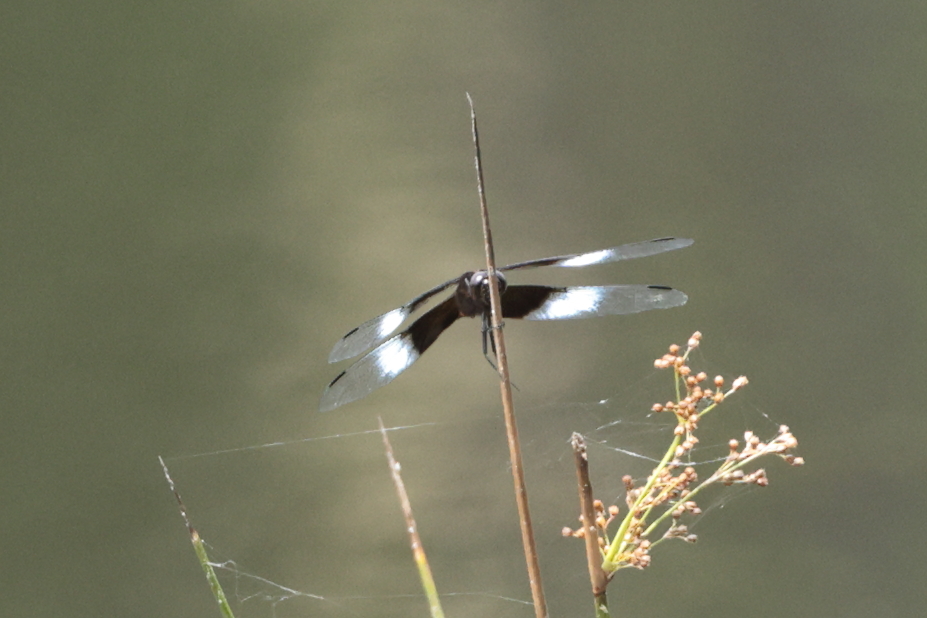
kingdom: Animalia
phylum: Arthropoda
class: Insecta
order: Odonata
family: Libellulidae
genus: Libellula
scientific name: Libellula luctuosa
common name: Widow skimmer
